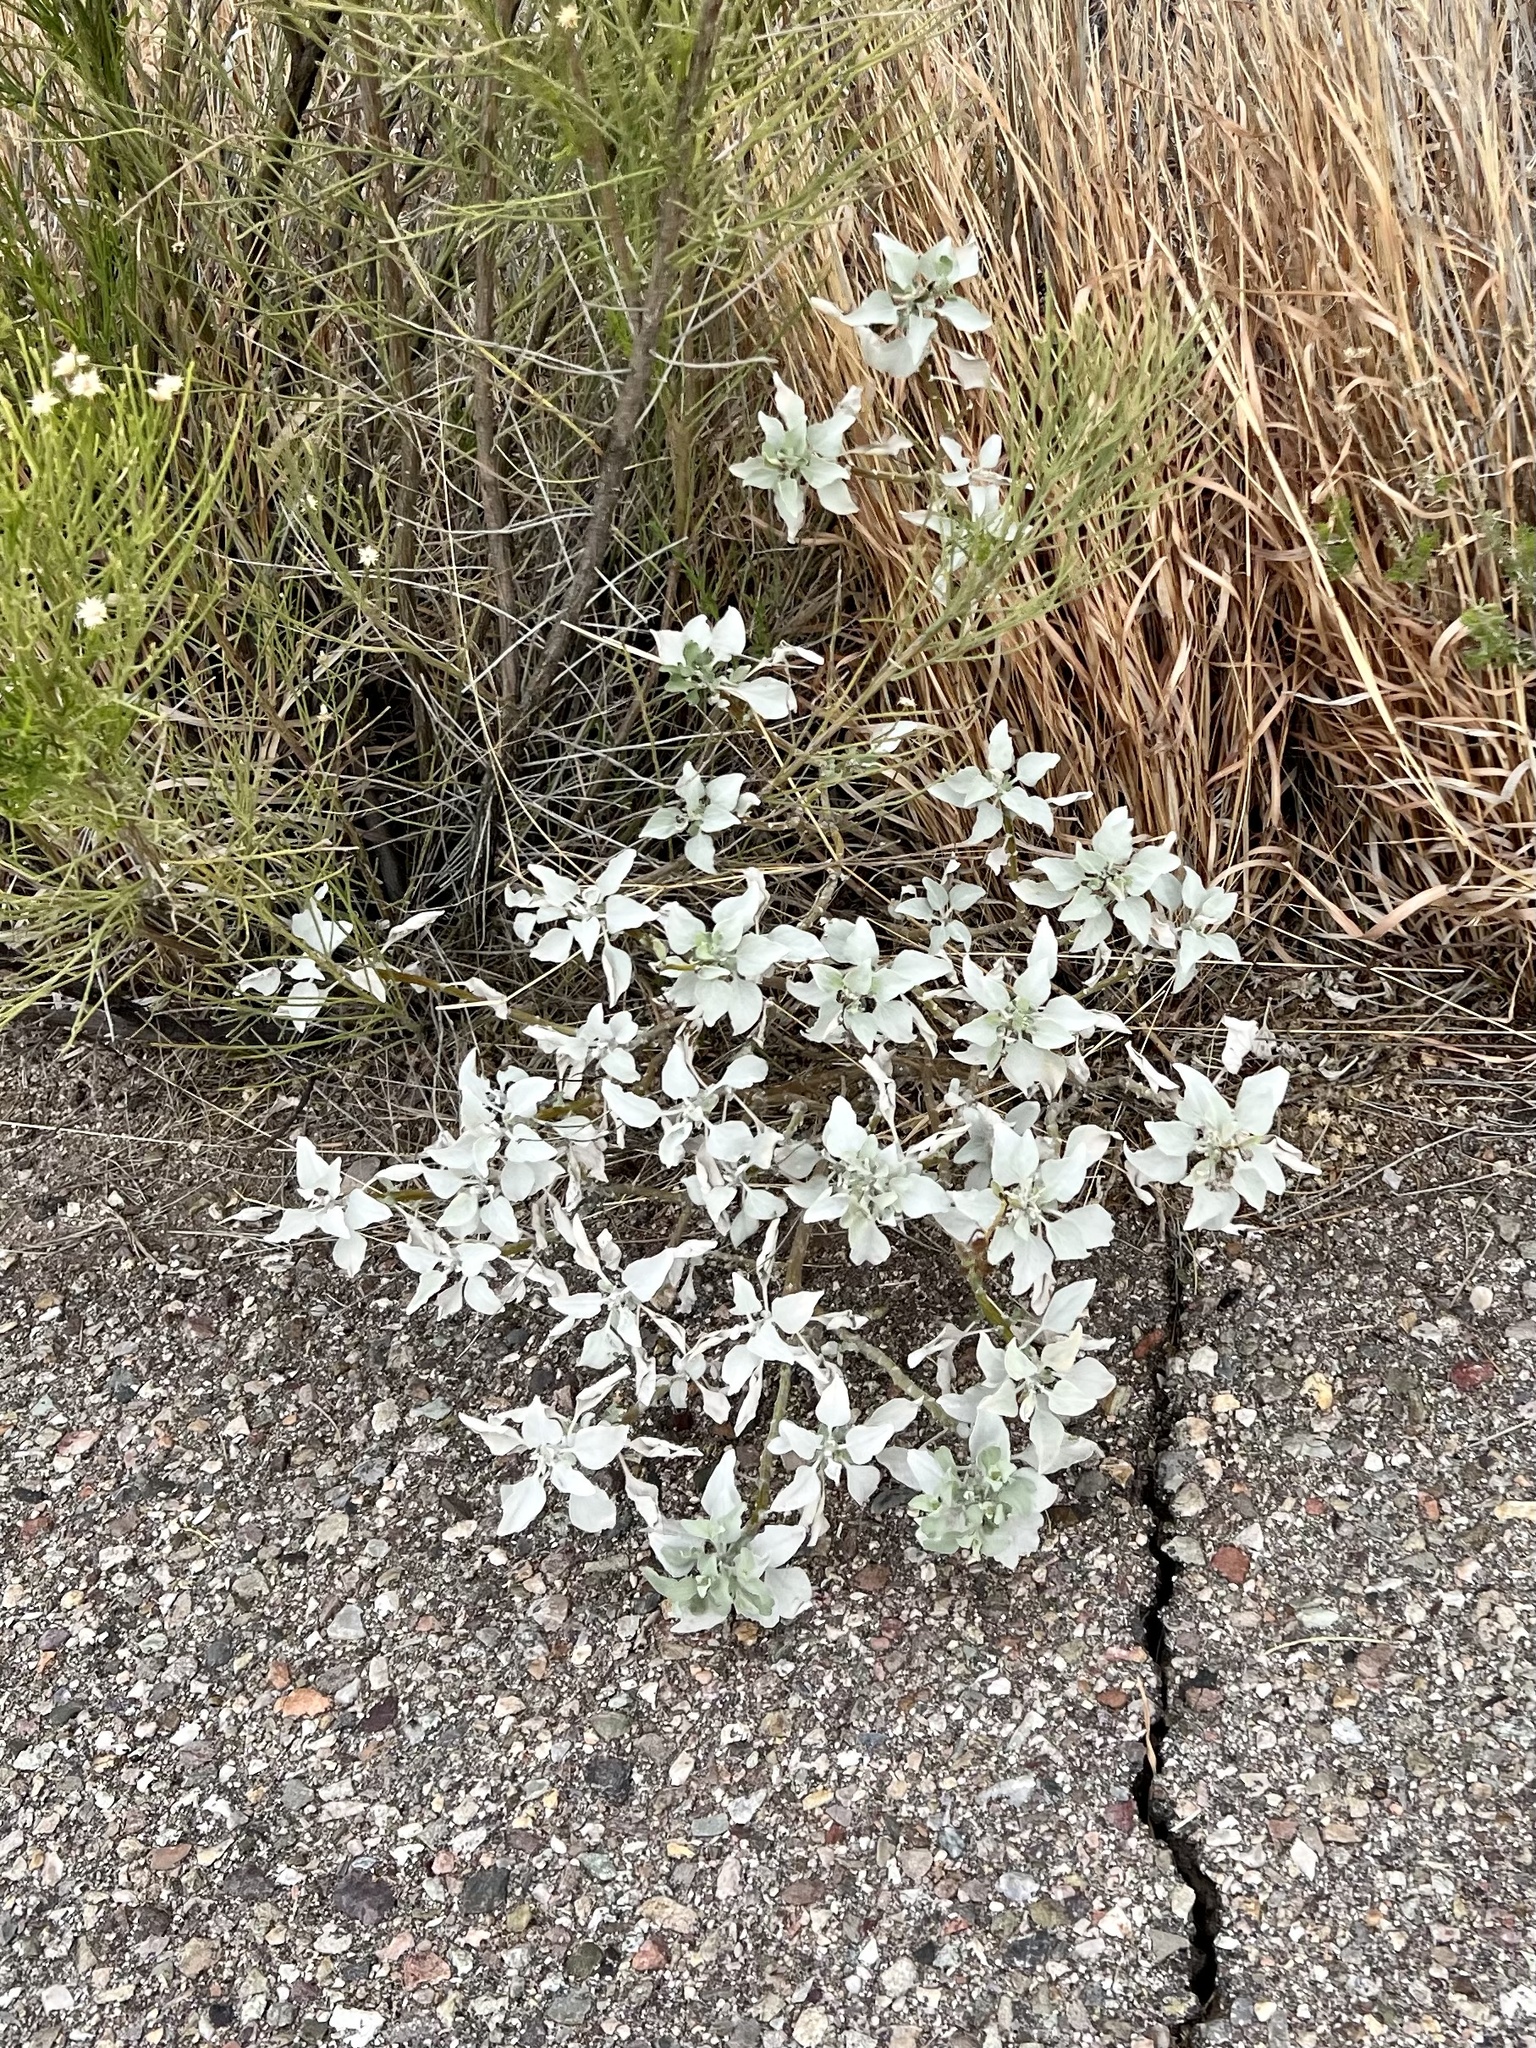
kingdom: Plantae
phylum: Tracheophyta
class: Magnoliopsida
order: Asterales
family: Asteraceae
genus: Encelia
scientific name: Encelia farinosa
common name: Brittlebush
